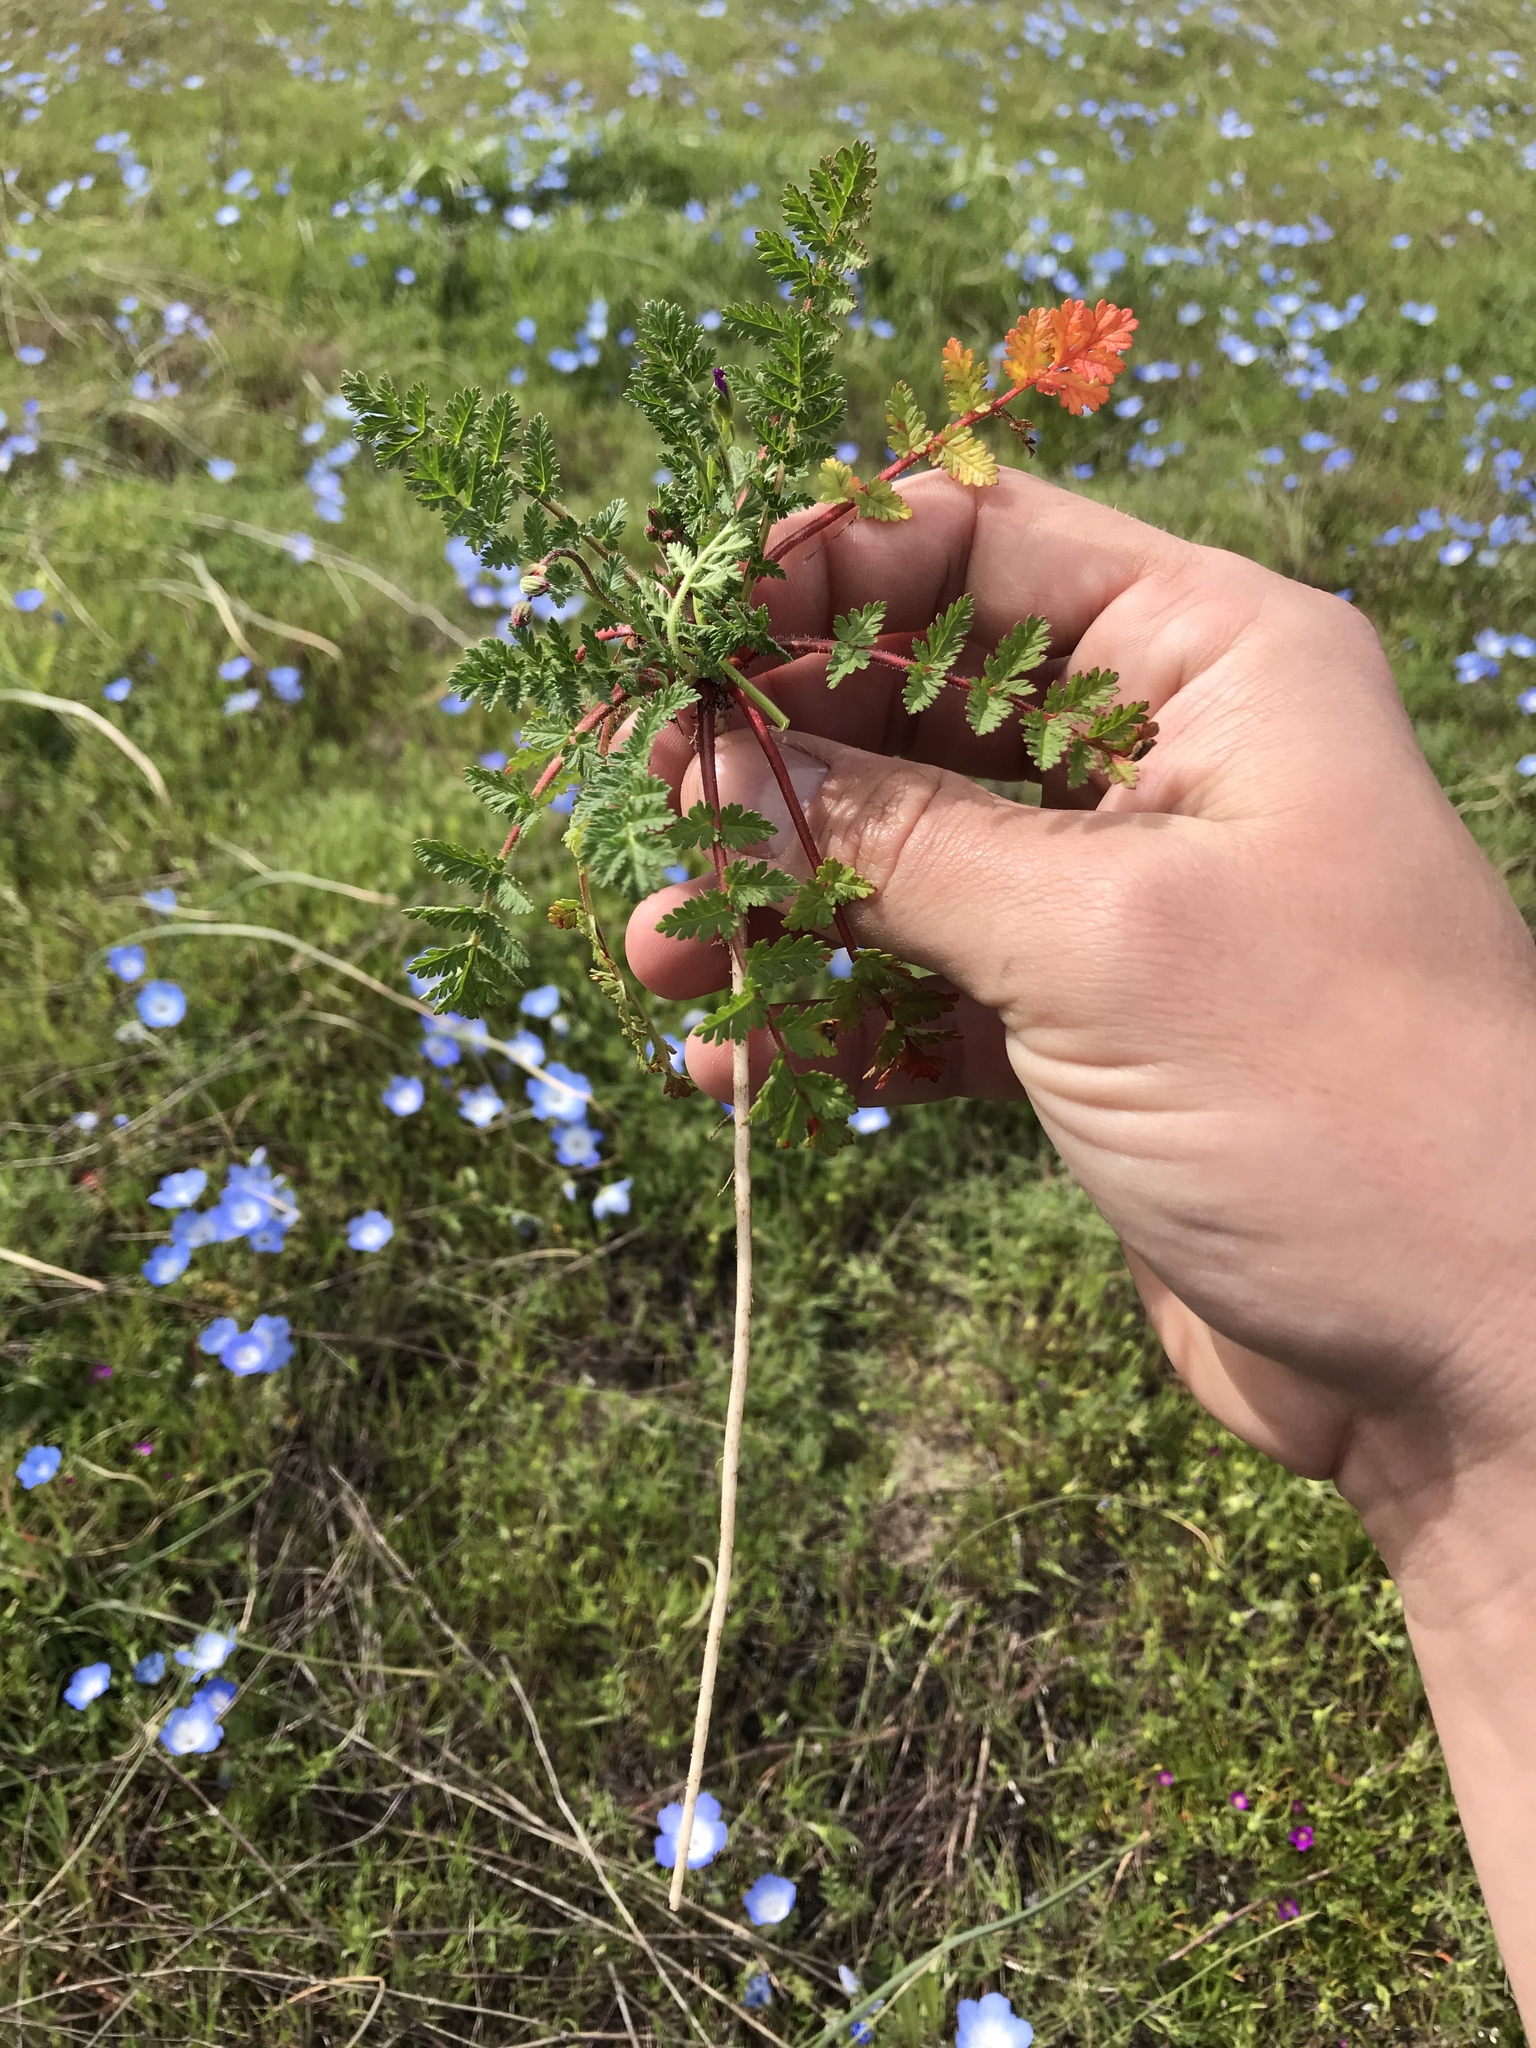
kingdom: Plantae
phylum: Tracheophyta
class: Magnoliopsida
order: Geraniales
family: Geraniaceae
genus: Erodium
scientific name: Erodium cicutarium
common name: Common stork's-bill
